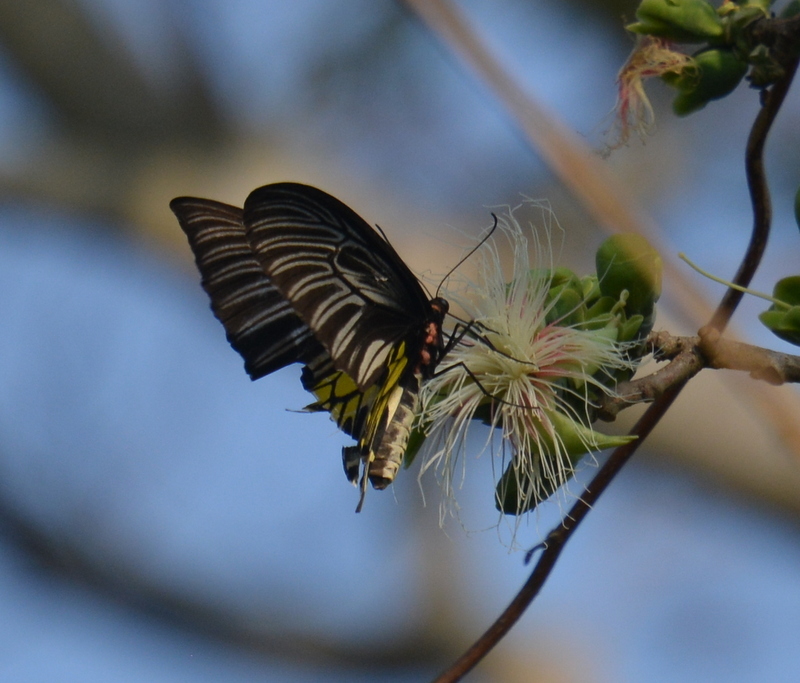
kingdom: Animalia
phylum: Arthropoda
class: Insecta
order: Lepidoptera
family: Papilionidae
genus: Troides
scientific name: Troides aeacus
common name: Golden birdwing
